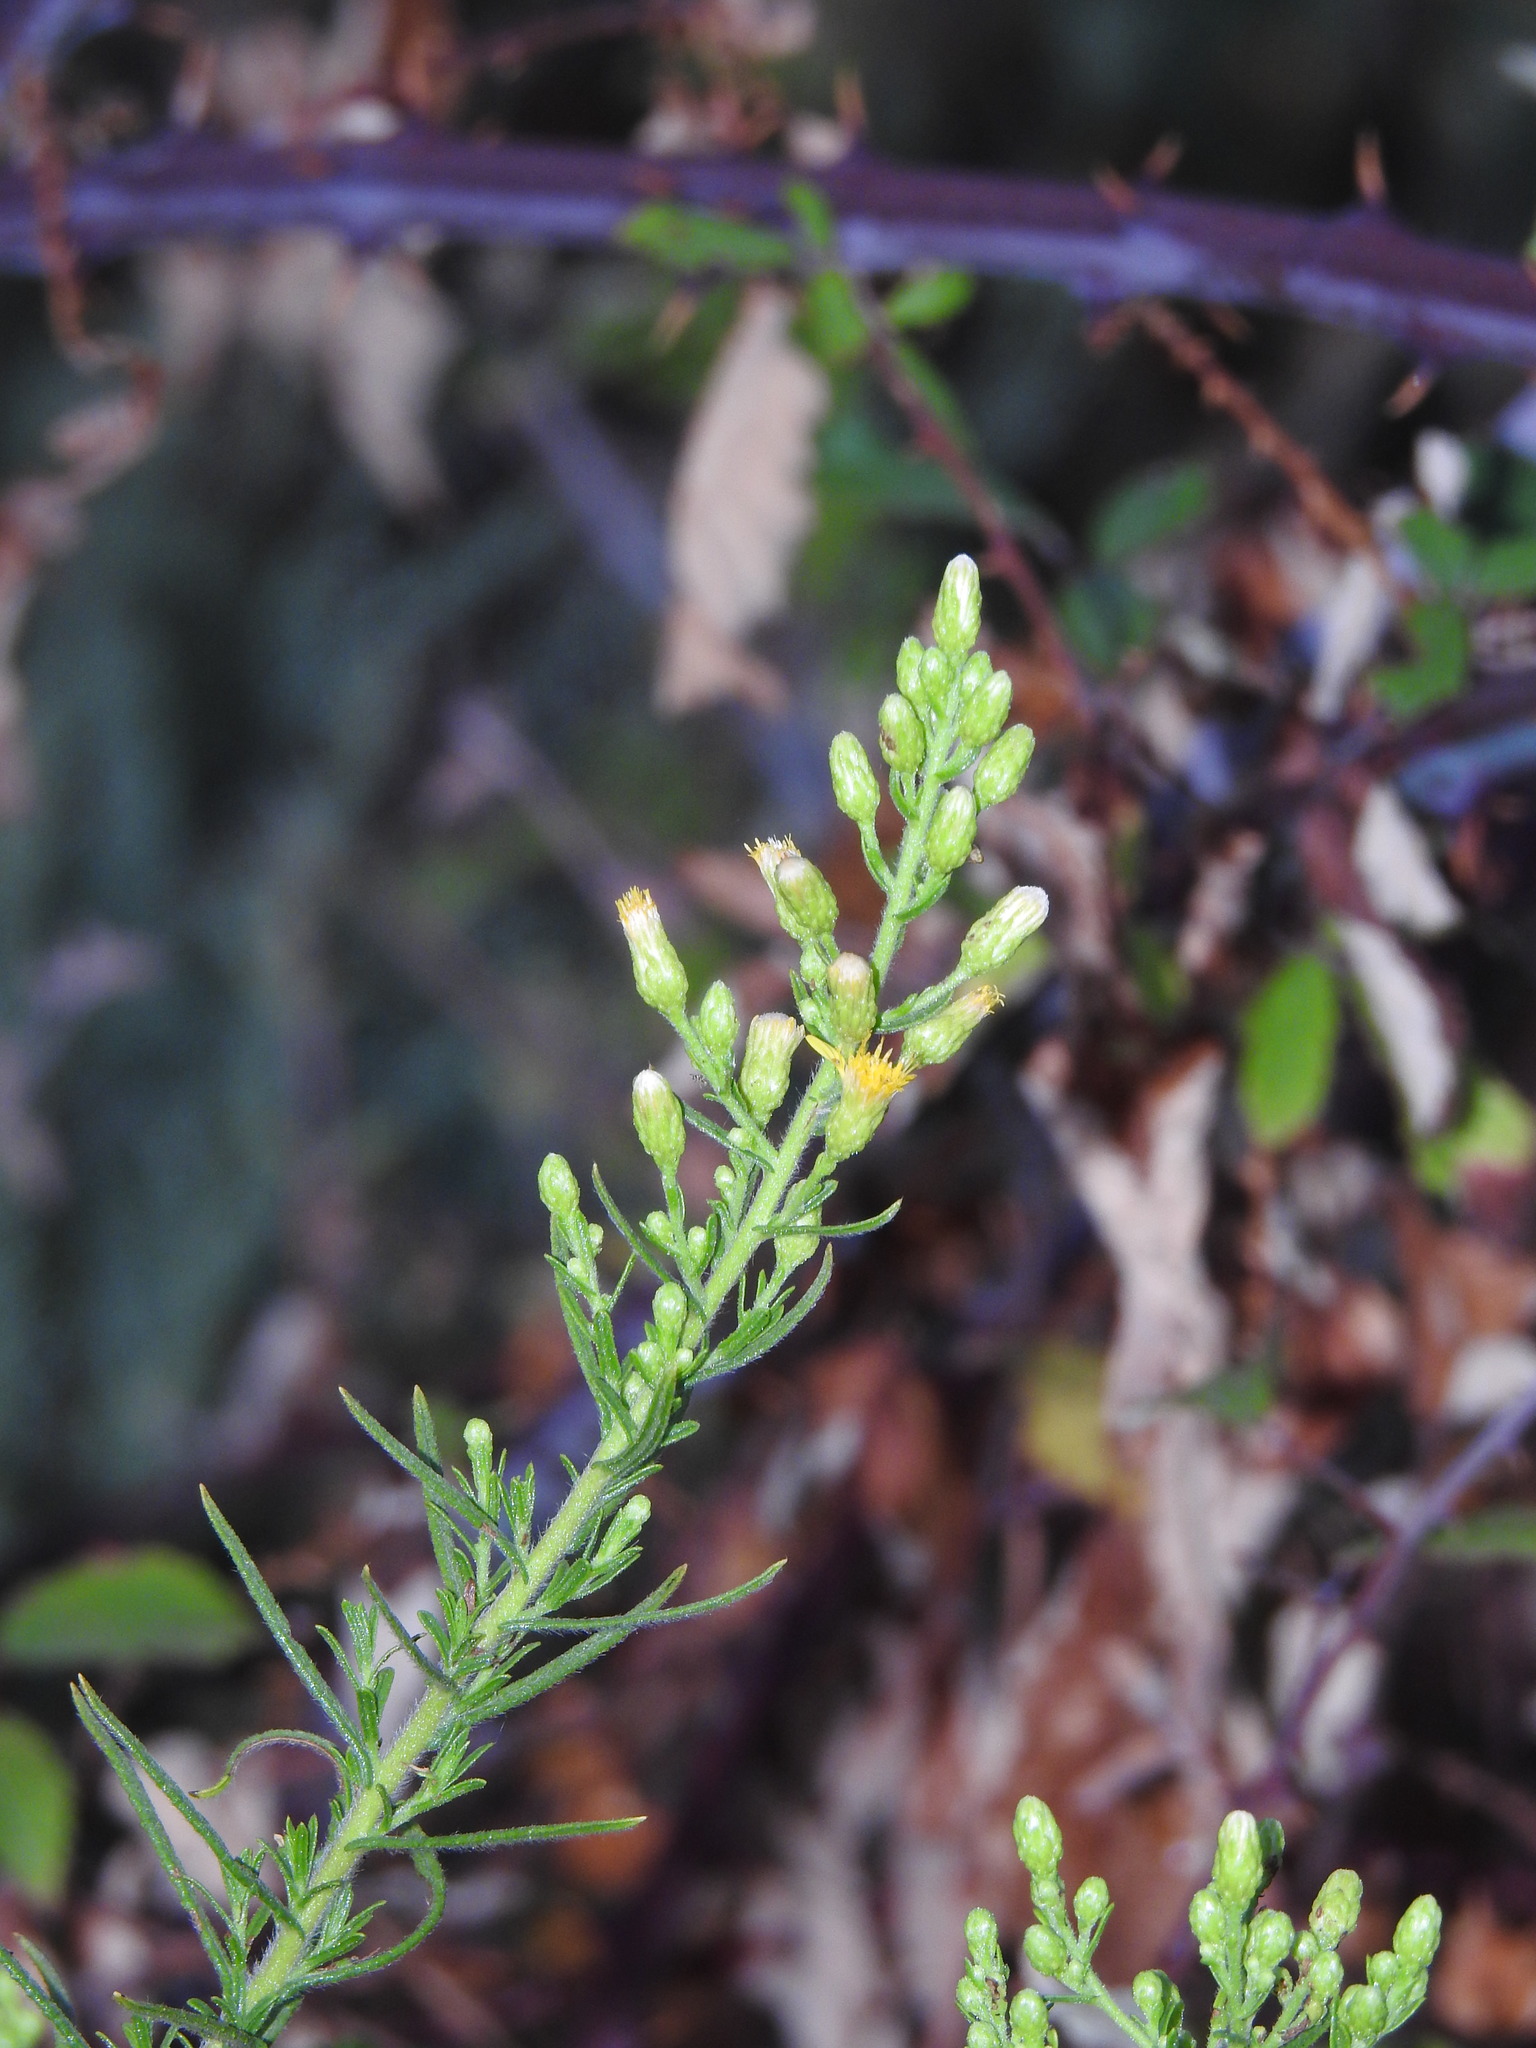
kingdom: Plantae
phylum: Tracheophyta
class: Magnoliopsida
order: Asterales
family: Asteraceae
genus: Dittrichia
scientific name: Dittrichia viscosa
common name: Woody fleabane
